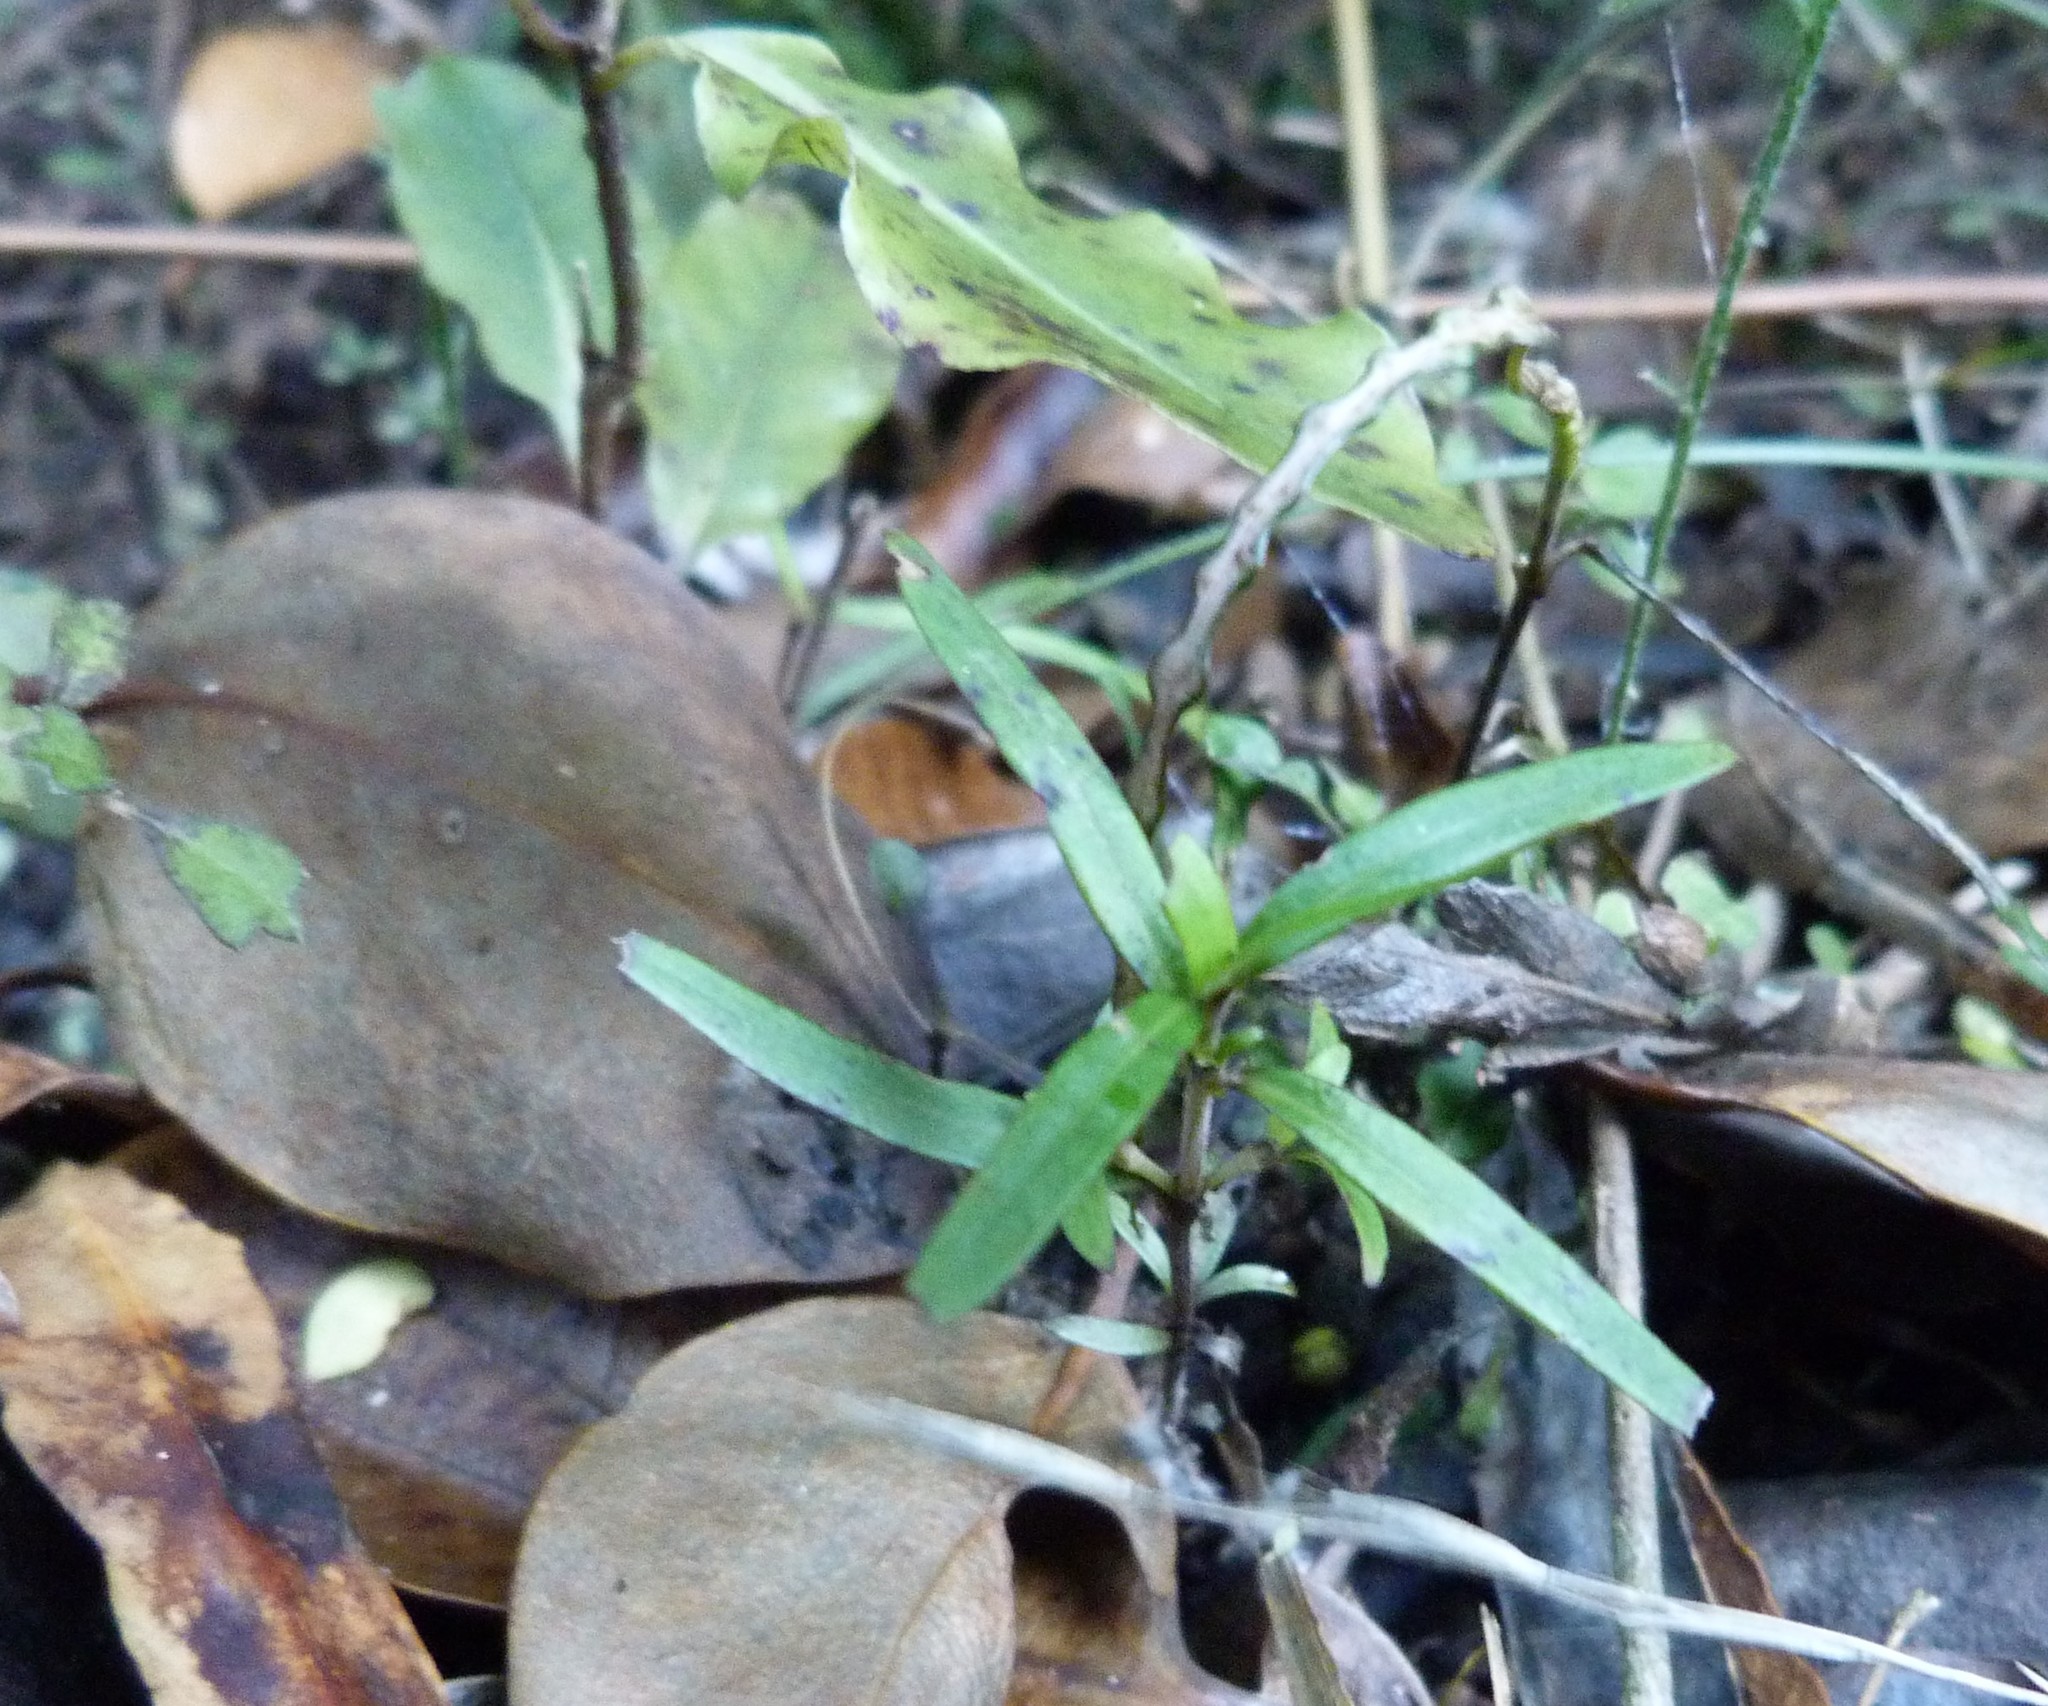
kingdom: Plantae
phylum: Tracheophyta
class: Magnoliopsida
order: Gentianales
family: Rubiaceae
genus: Coprosma
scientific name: Coprosma linariifolia
